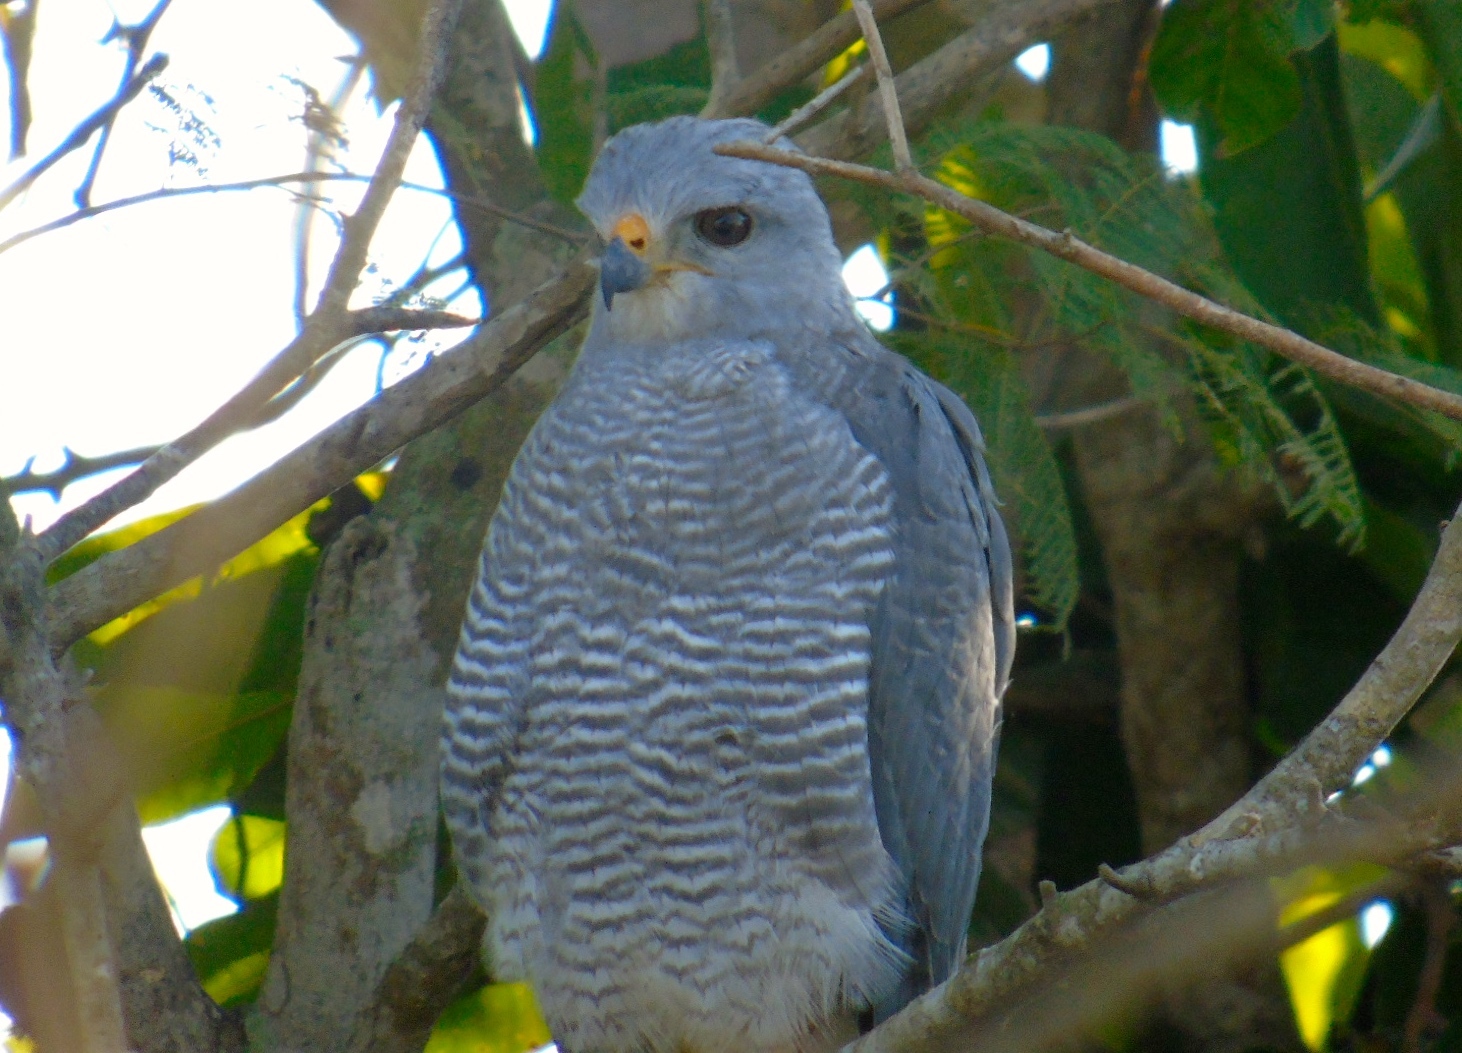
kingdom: Animalia
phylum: Chordata
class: Aves
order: Accipitriformes
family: Accipitridae
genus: Buteo
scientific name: Buteo nitidus
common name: Grey-lined hawk
